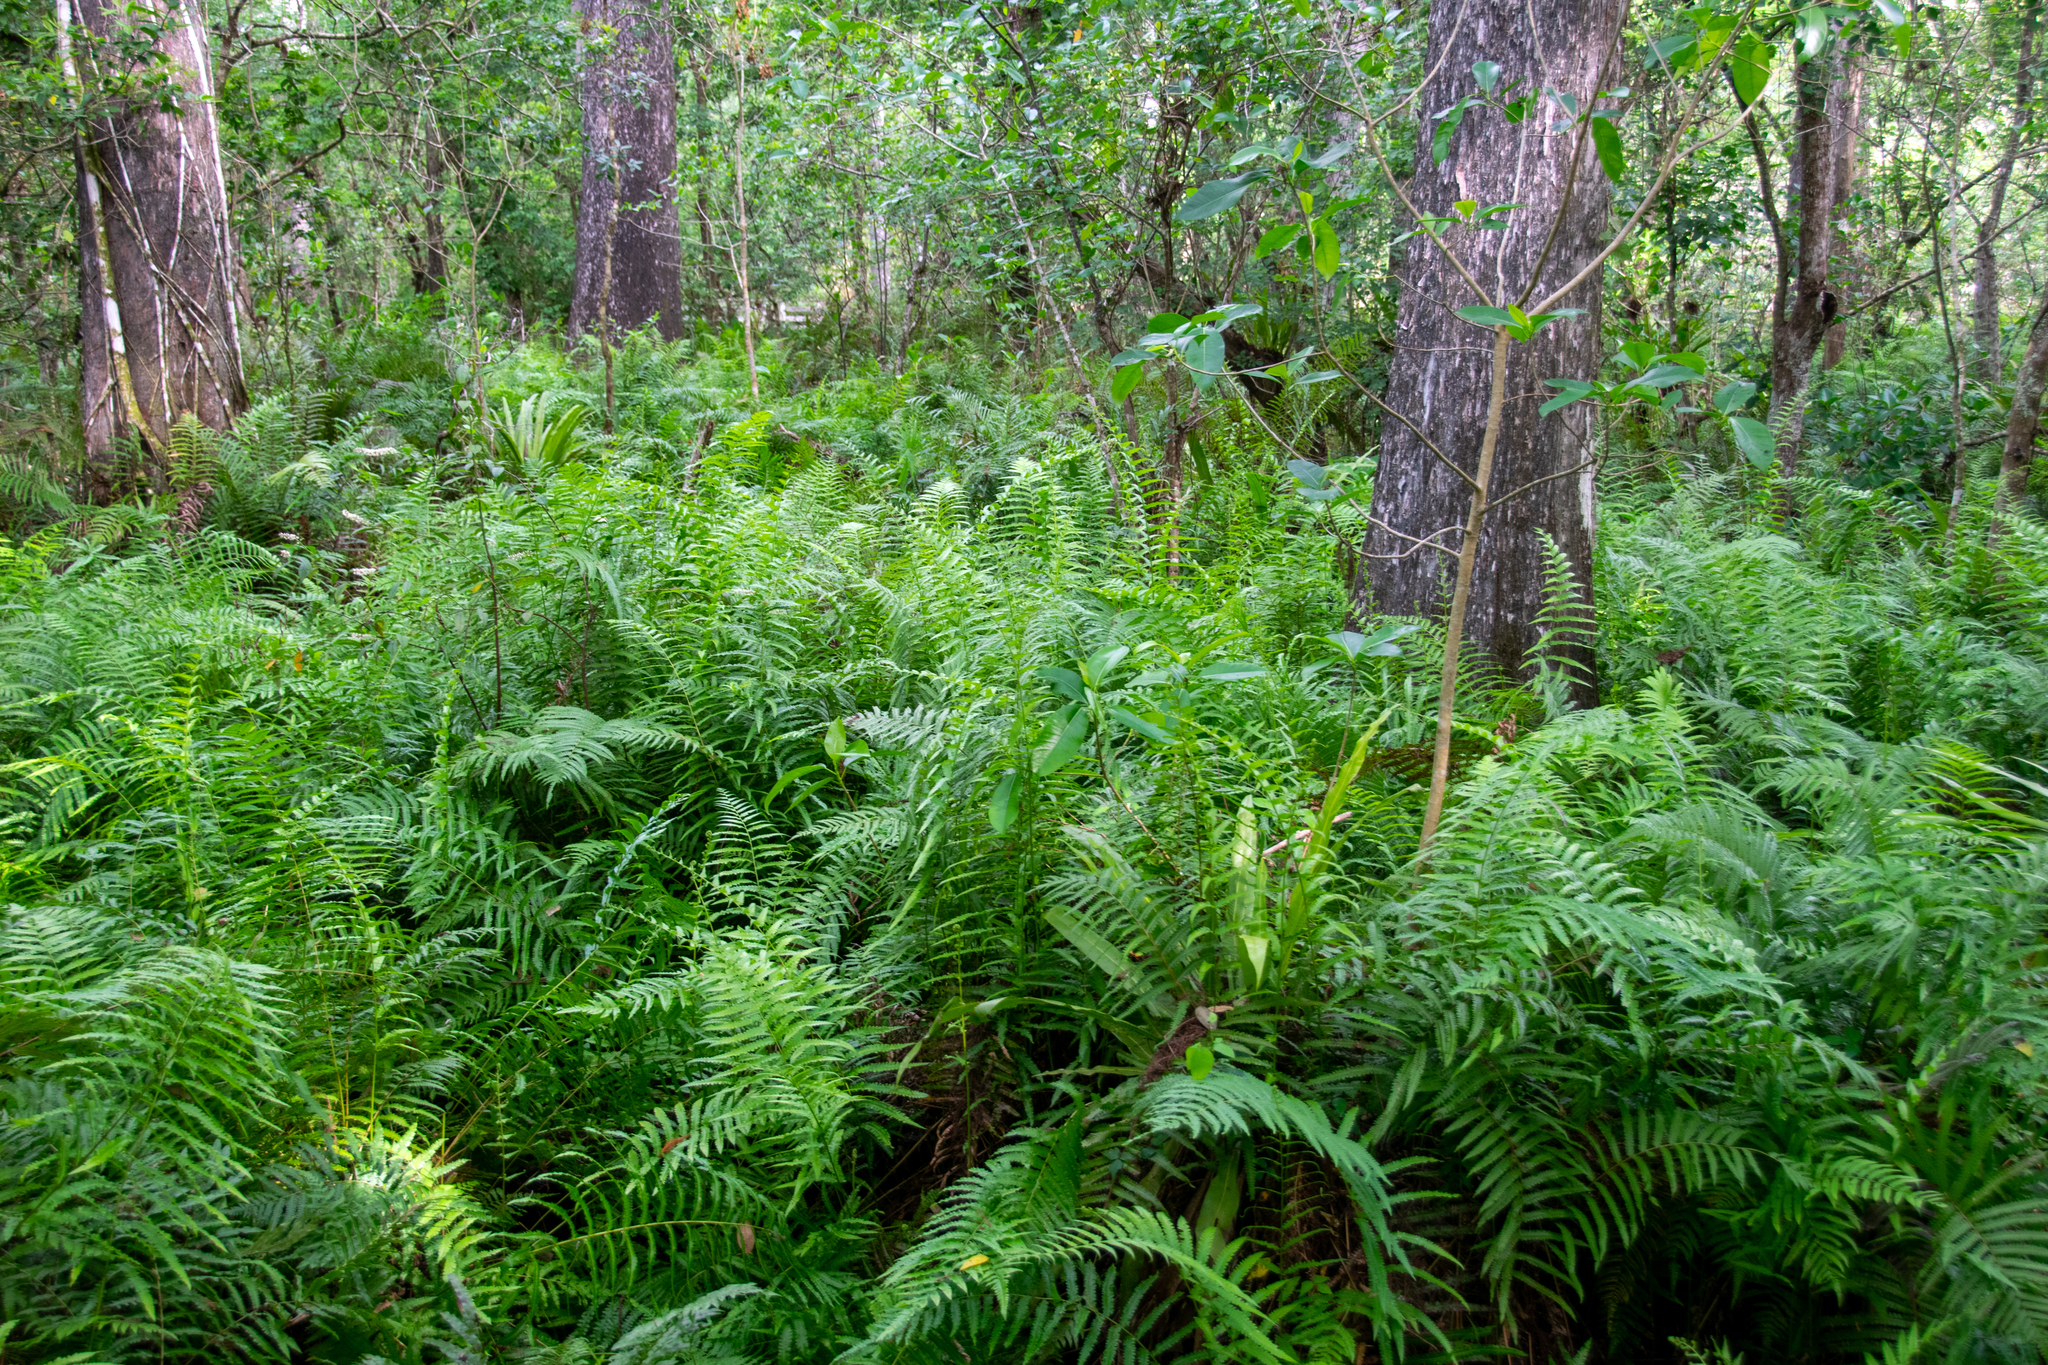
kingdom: Plantae
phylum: Tracheophyta
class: Polypodiopsida
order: Polypodiales
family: Thelypteridaceae
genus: Cyclosorus
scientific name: Cyclosorus interruptus
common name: Neke fern
